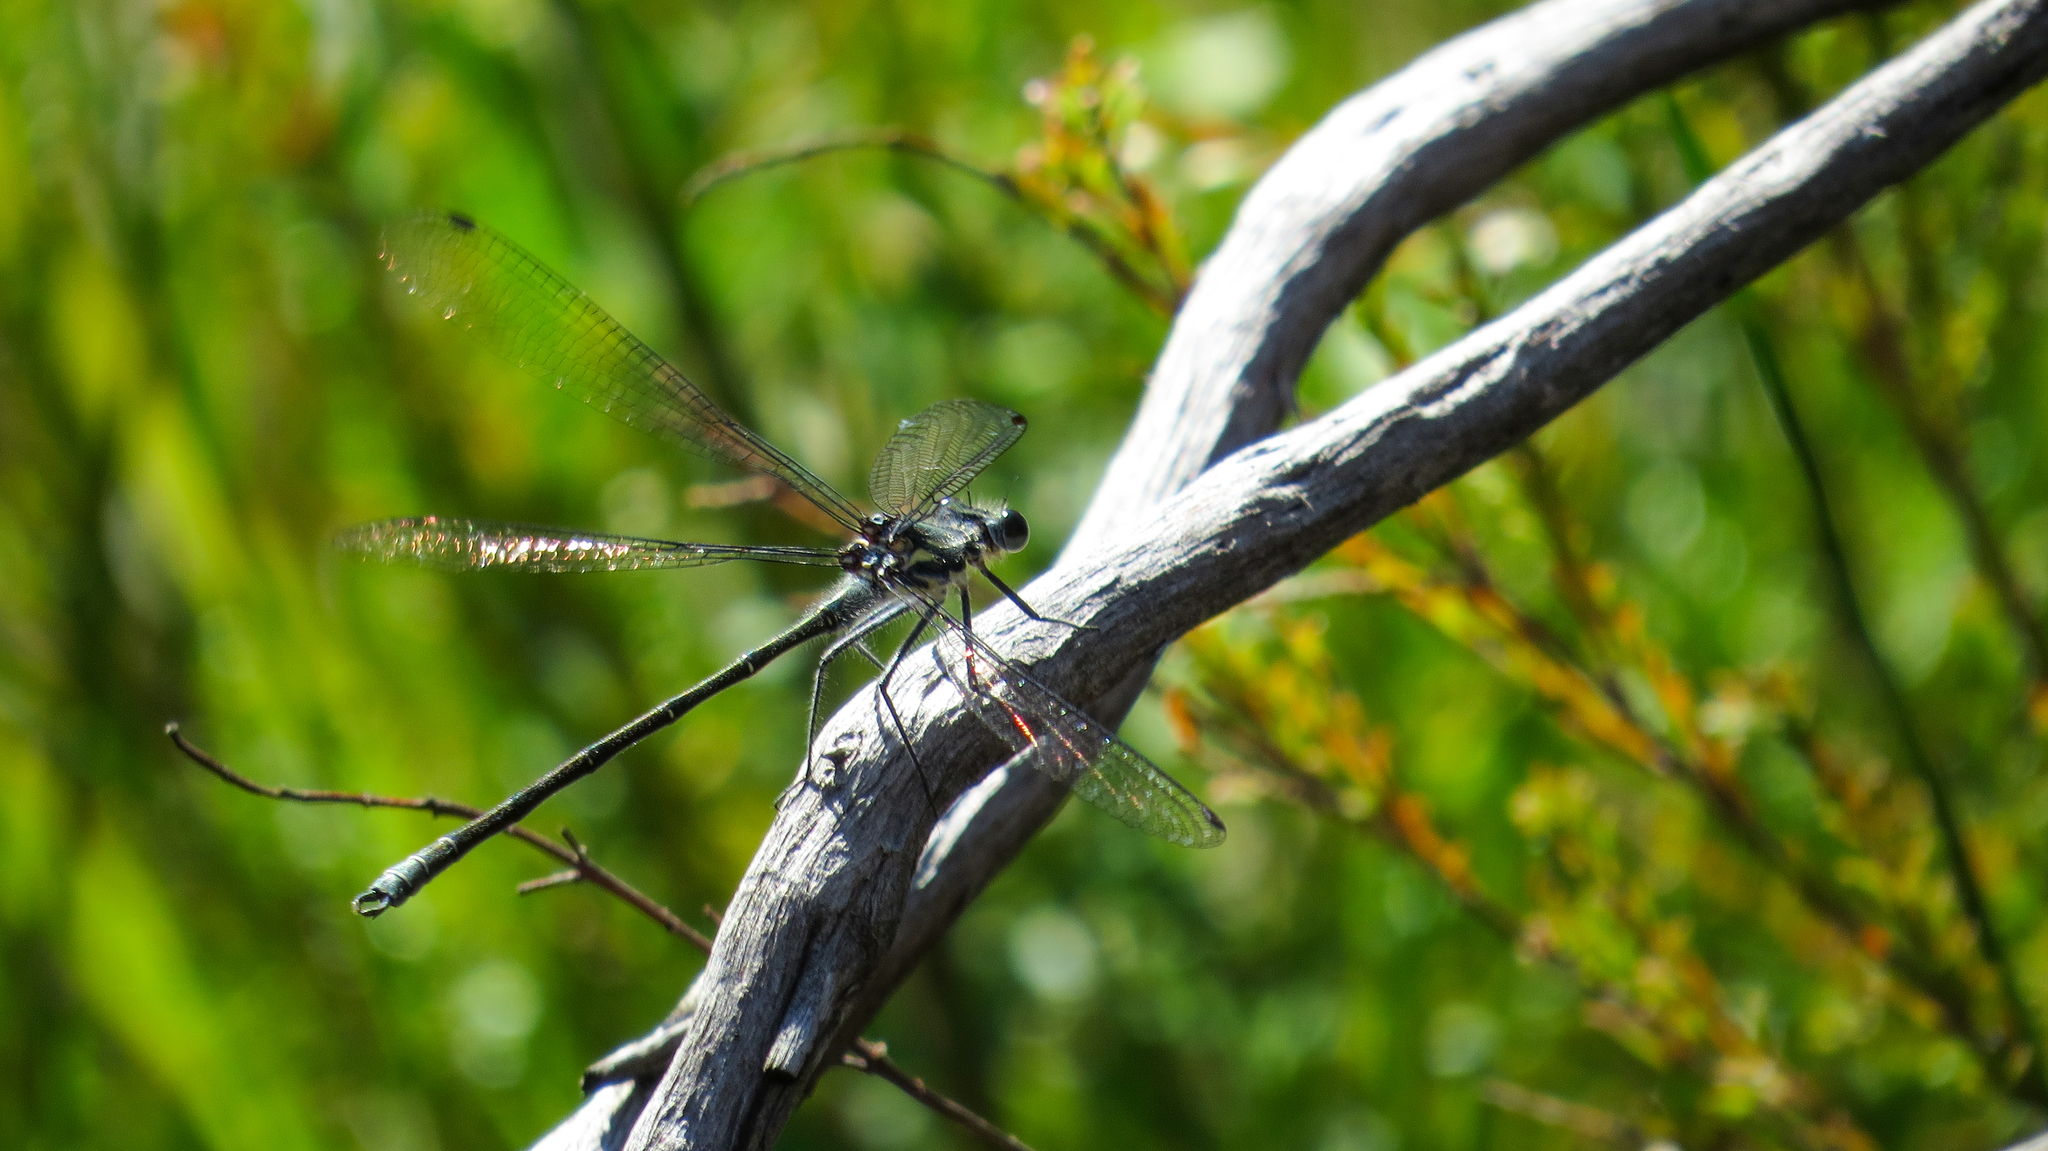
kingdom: Animalia
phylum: Arthropoda
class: Insecta
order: Odonata
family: Argiolestidae
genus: Austroargiolestes
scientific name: Austroargiolestes icteromelas
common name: Common flatwing
